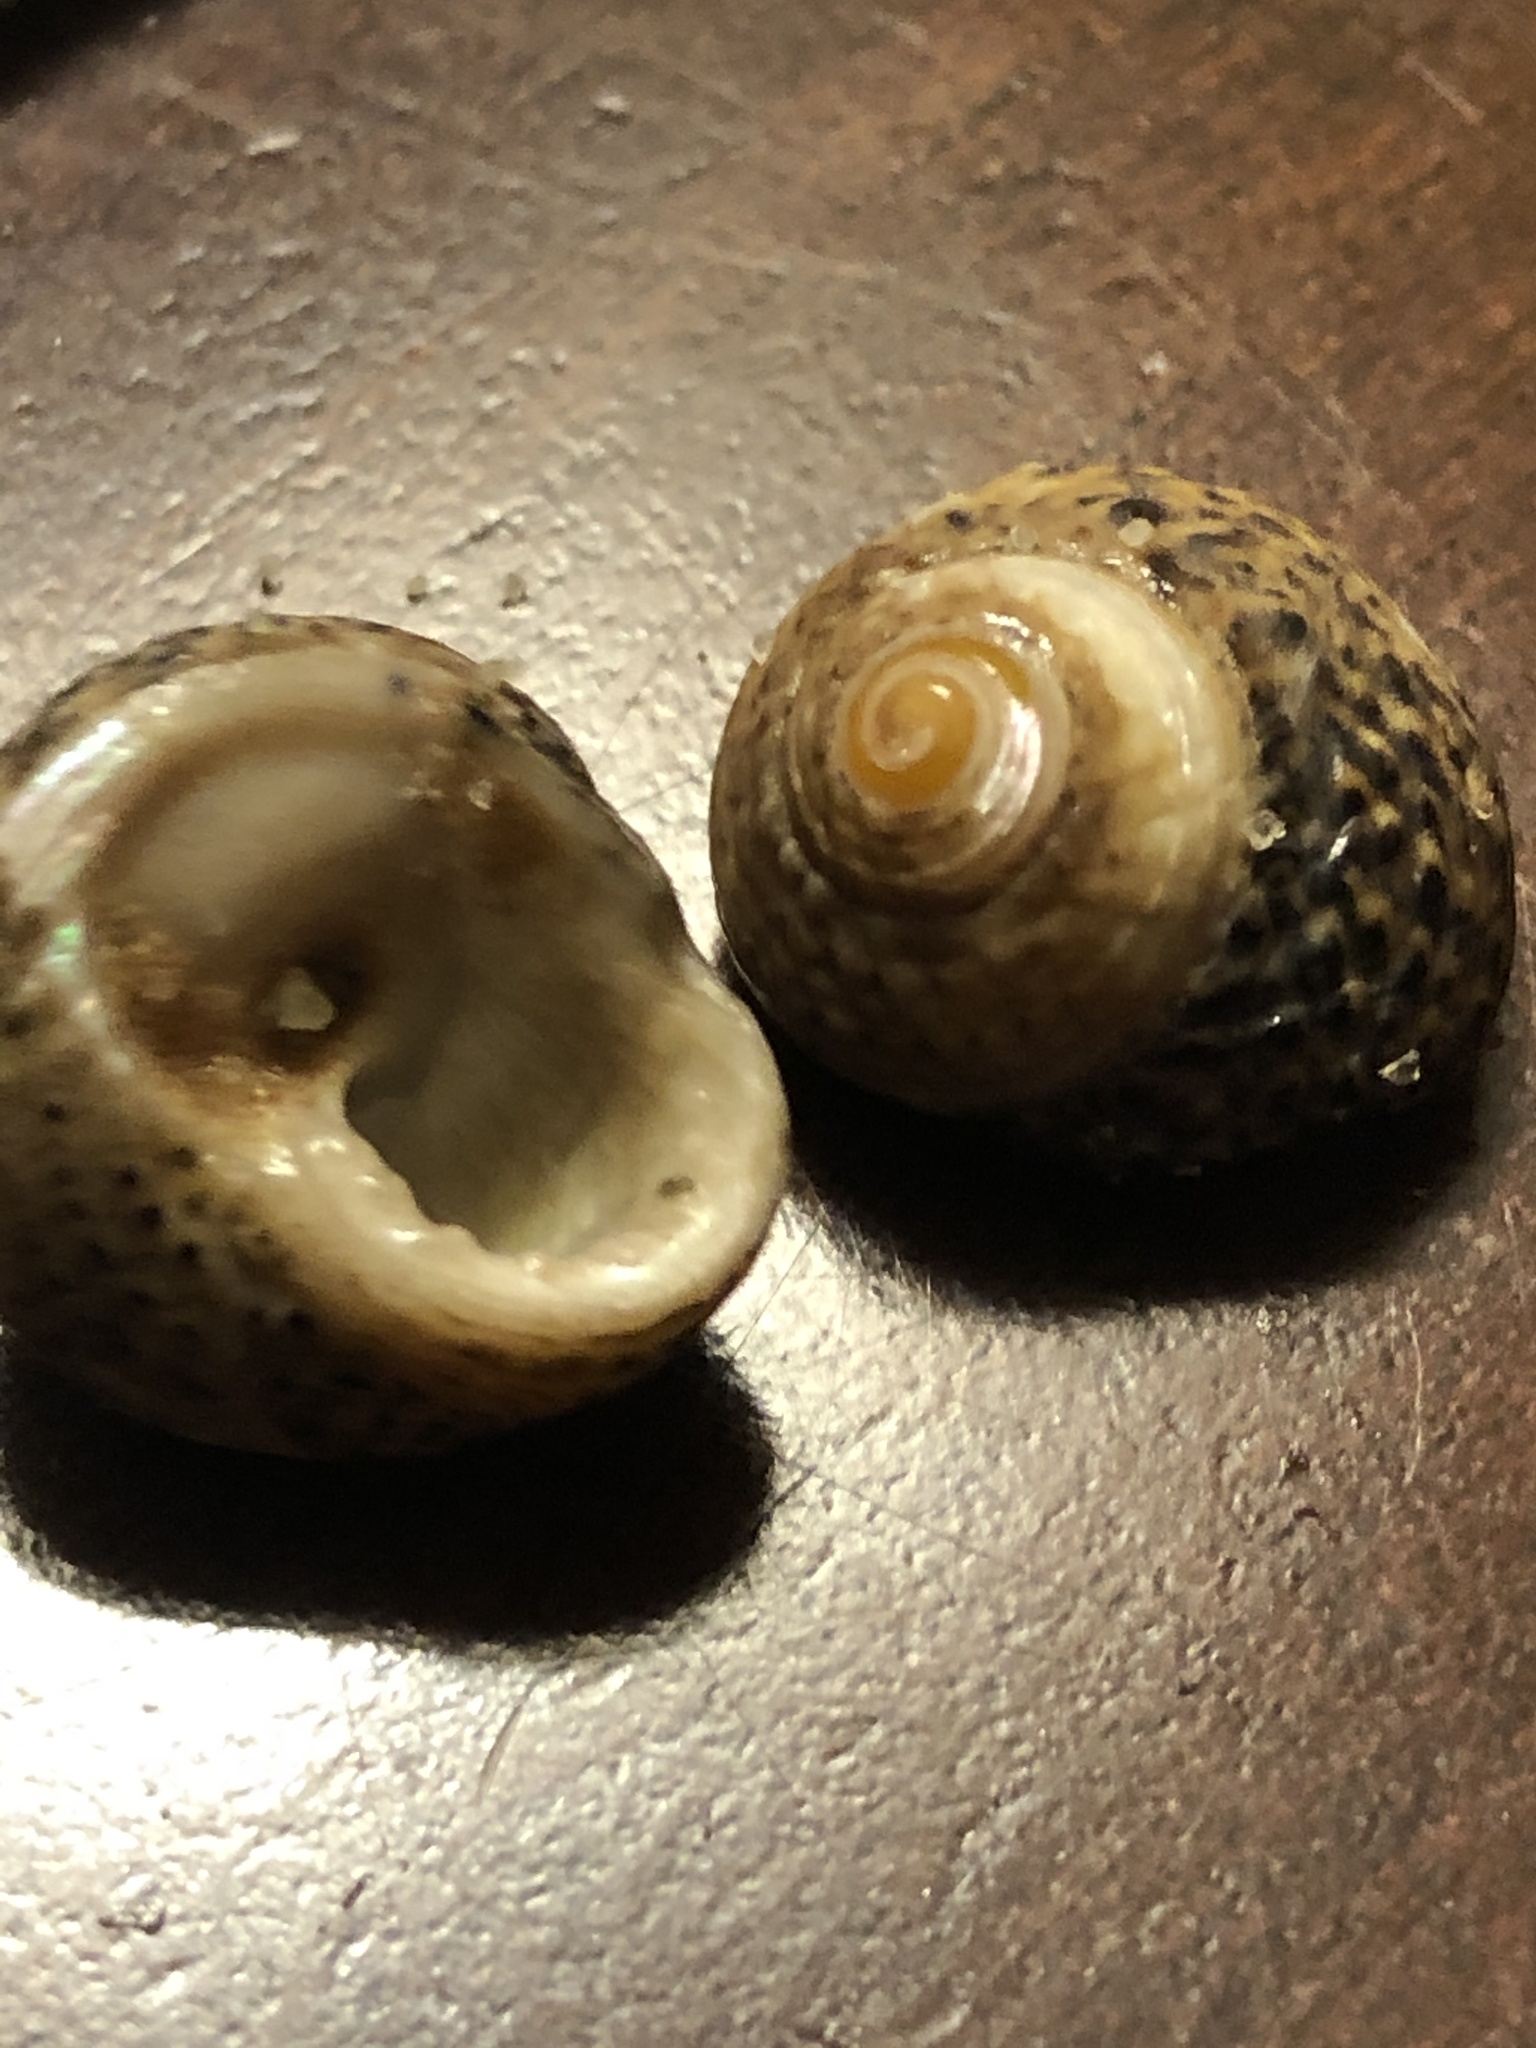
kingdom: Animalia
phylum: Mollusca
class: Gastropoda
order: Trochida
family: Tegulidae
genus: Tegula
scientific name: Tegula eiseni
